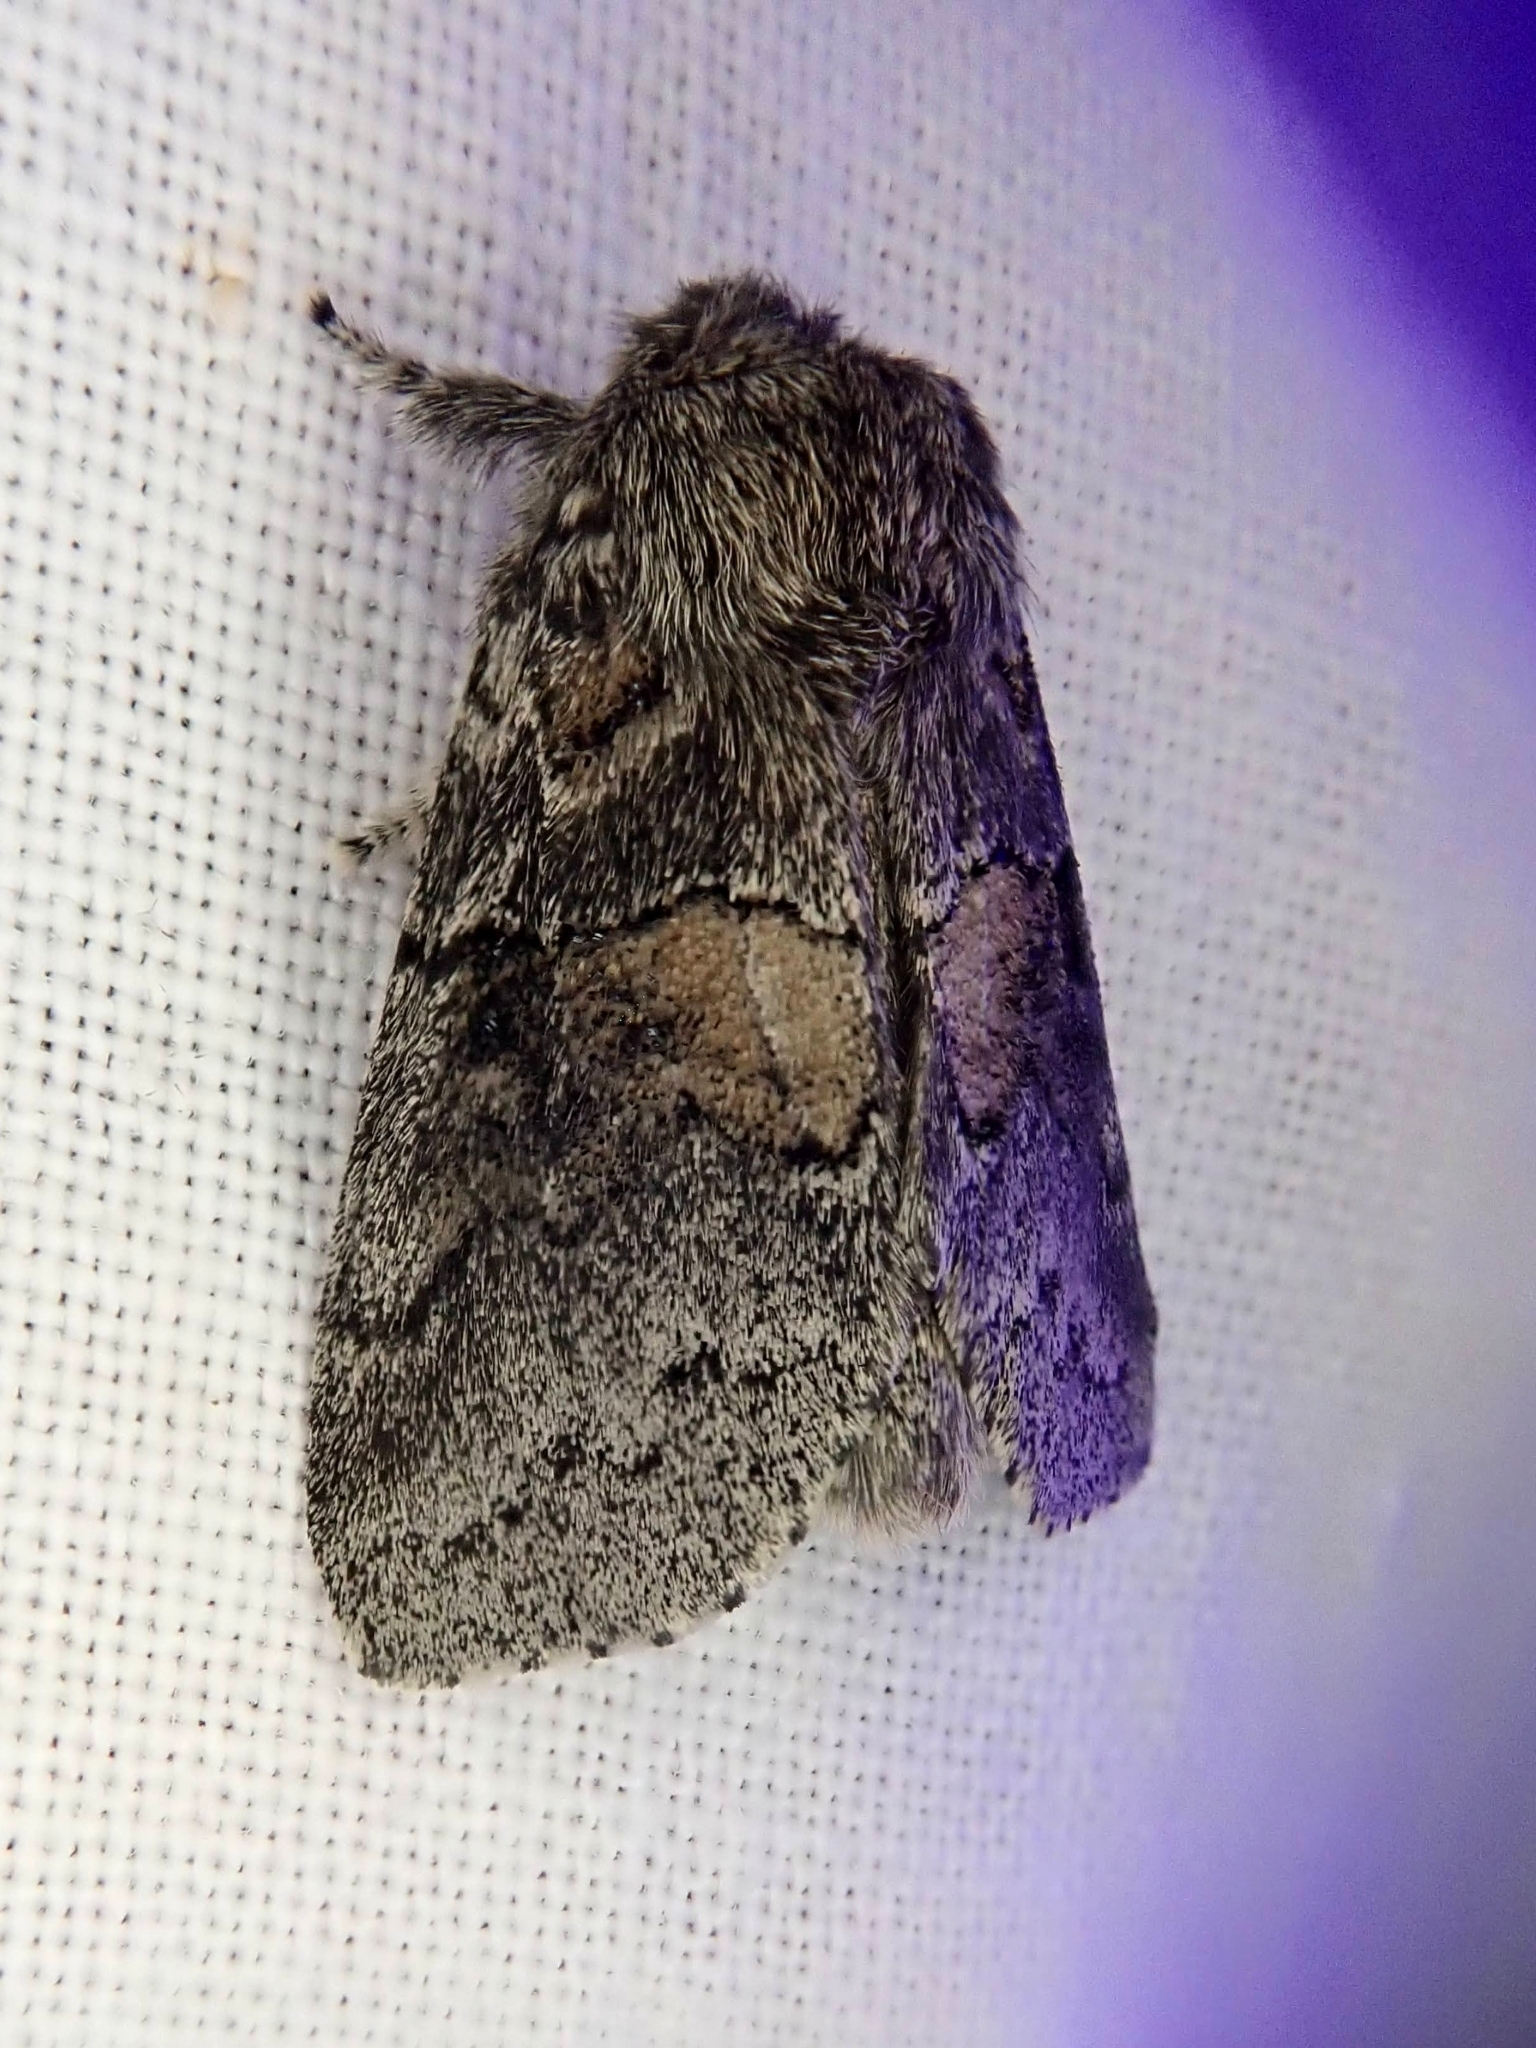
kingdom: Animalia
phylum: Arthropoda
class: Insecta
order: Lepidoptera
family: Notodontidae
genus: Gluphisia
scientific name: Gluphisia septentrionis
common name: Common gluphisia
